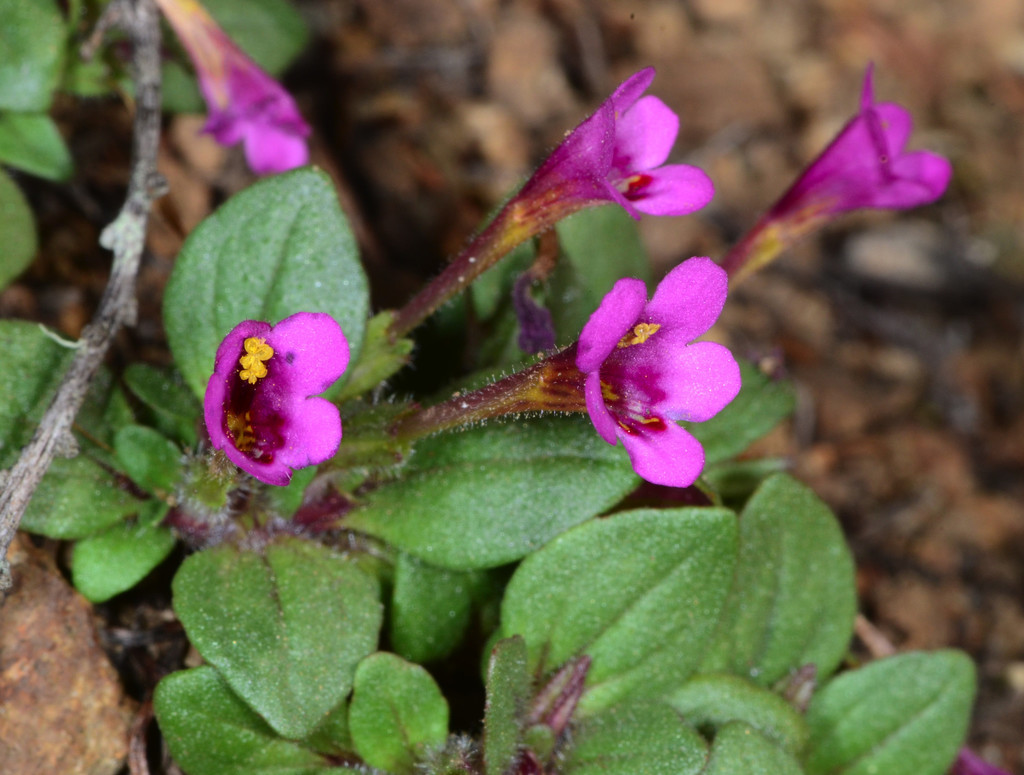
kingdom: Plantae
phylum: Tracheophyta
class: Magnoliopsida
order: Lamiales
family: Phrymaceae
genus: Diplacus
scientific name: Diplacus congdonii
